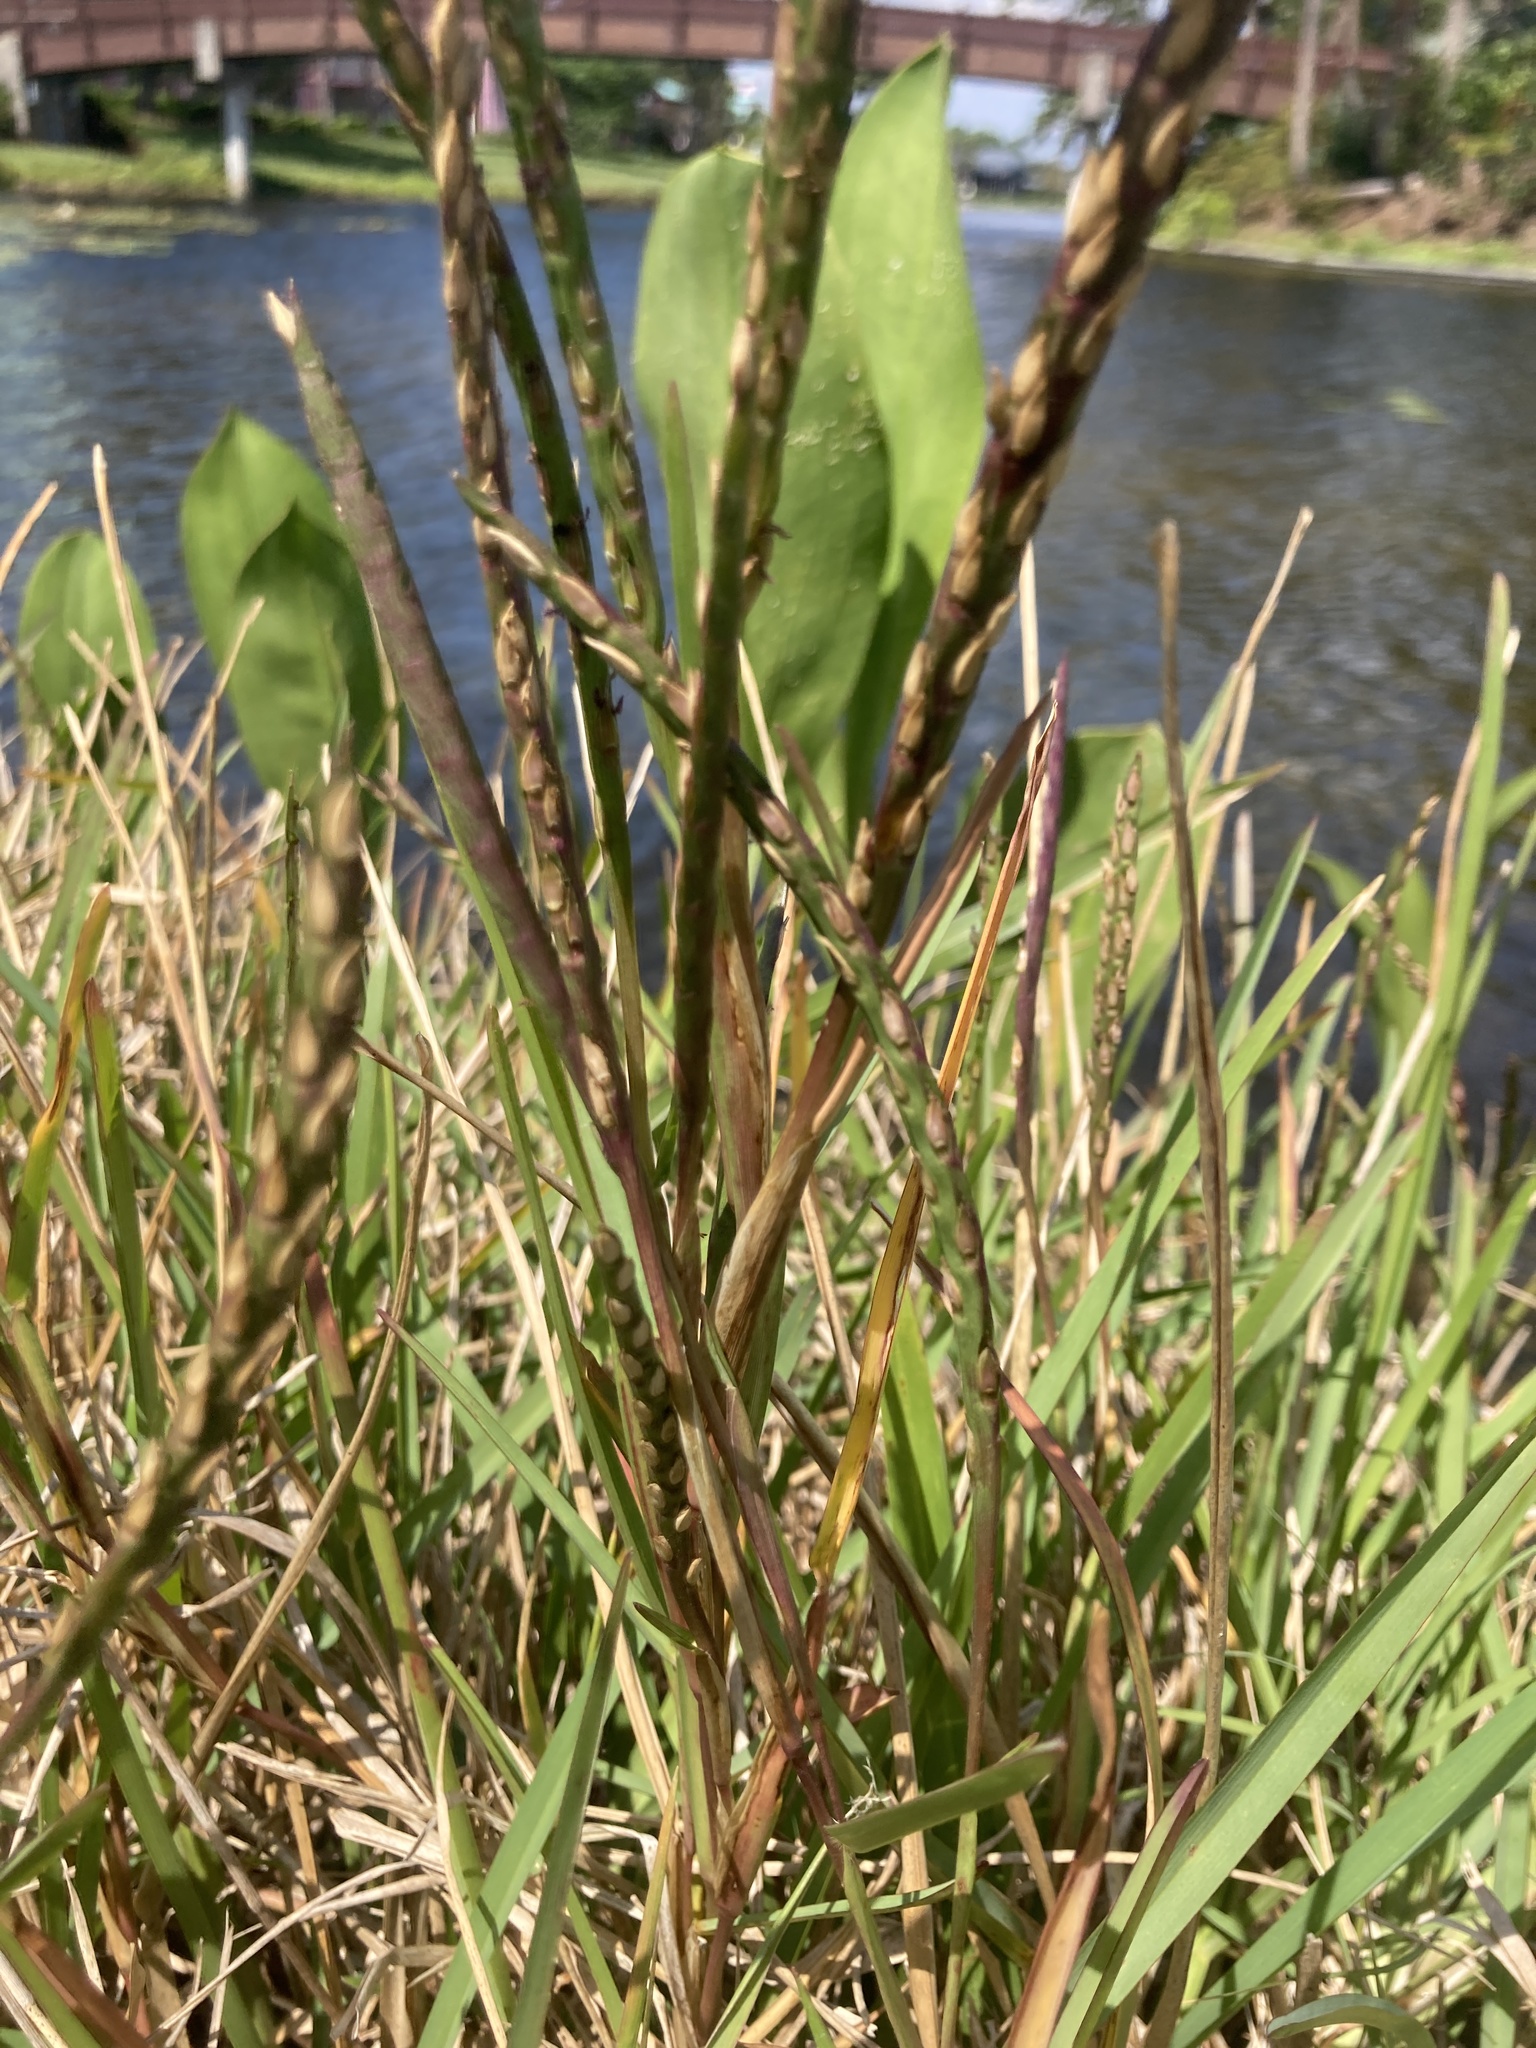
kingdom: Plantae
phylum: Tracheophyta
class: Liliopsida
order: Poales
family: Poaceae
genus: Stenotaphrum
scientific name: Stenotaphrum secundatum
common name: St. augustine grass
